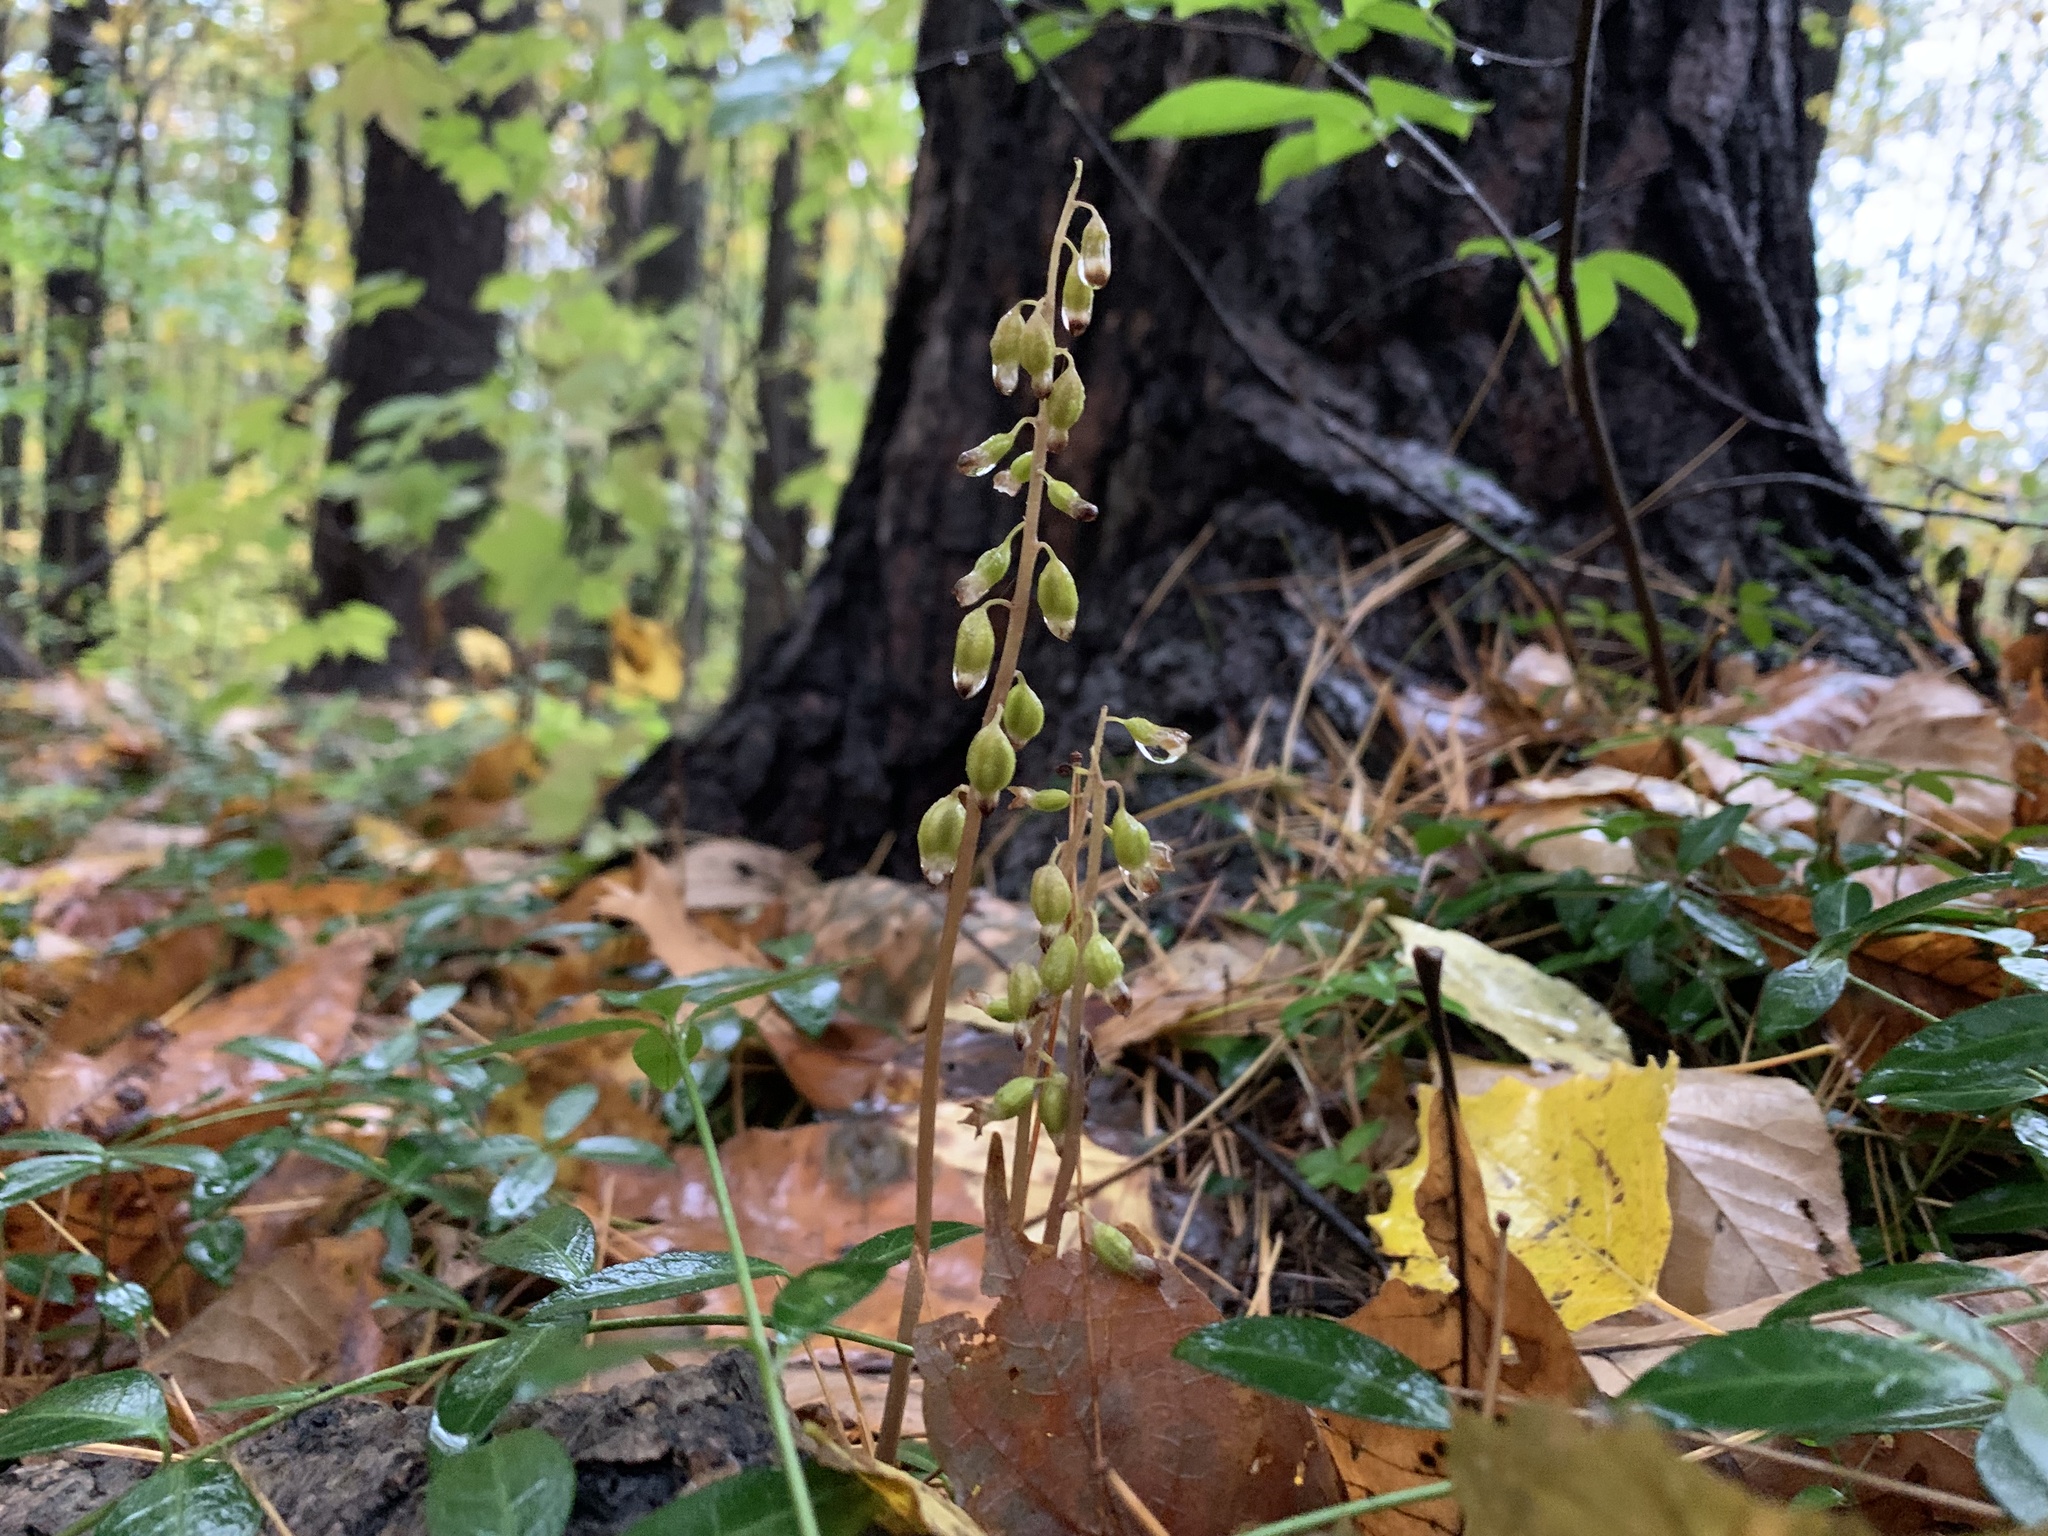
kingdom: Plantae
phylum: Tracheophyta
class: Liliopsida
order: Asparagales
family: Orchidaceae
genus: Corallorhiza
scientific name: Corallorhiza odontorhiza
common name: Autumn coralroot
